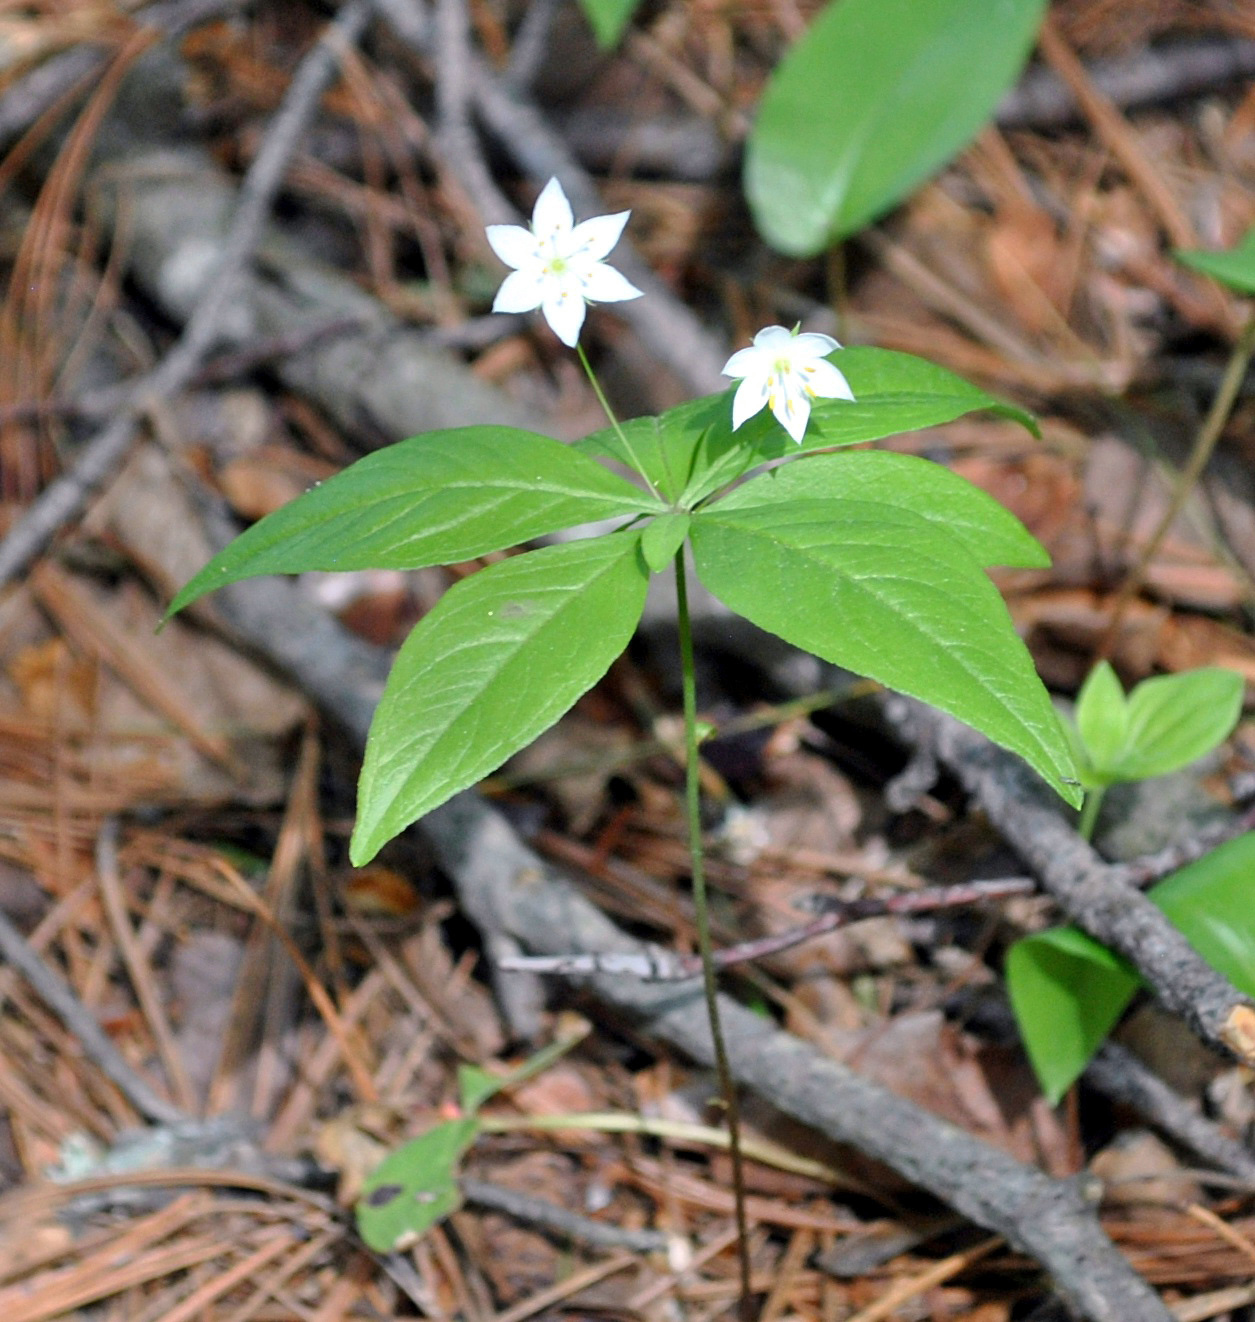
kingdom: Plantae
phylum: Tracheophyta
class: Magnoliopsida
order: Ericales
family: Primulaceae
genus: Lysimachia
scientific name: Lysimachia borealis
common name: American starflower
